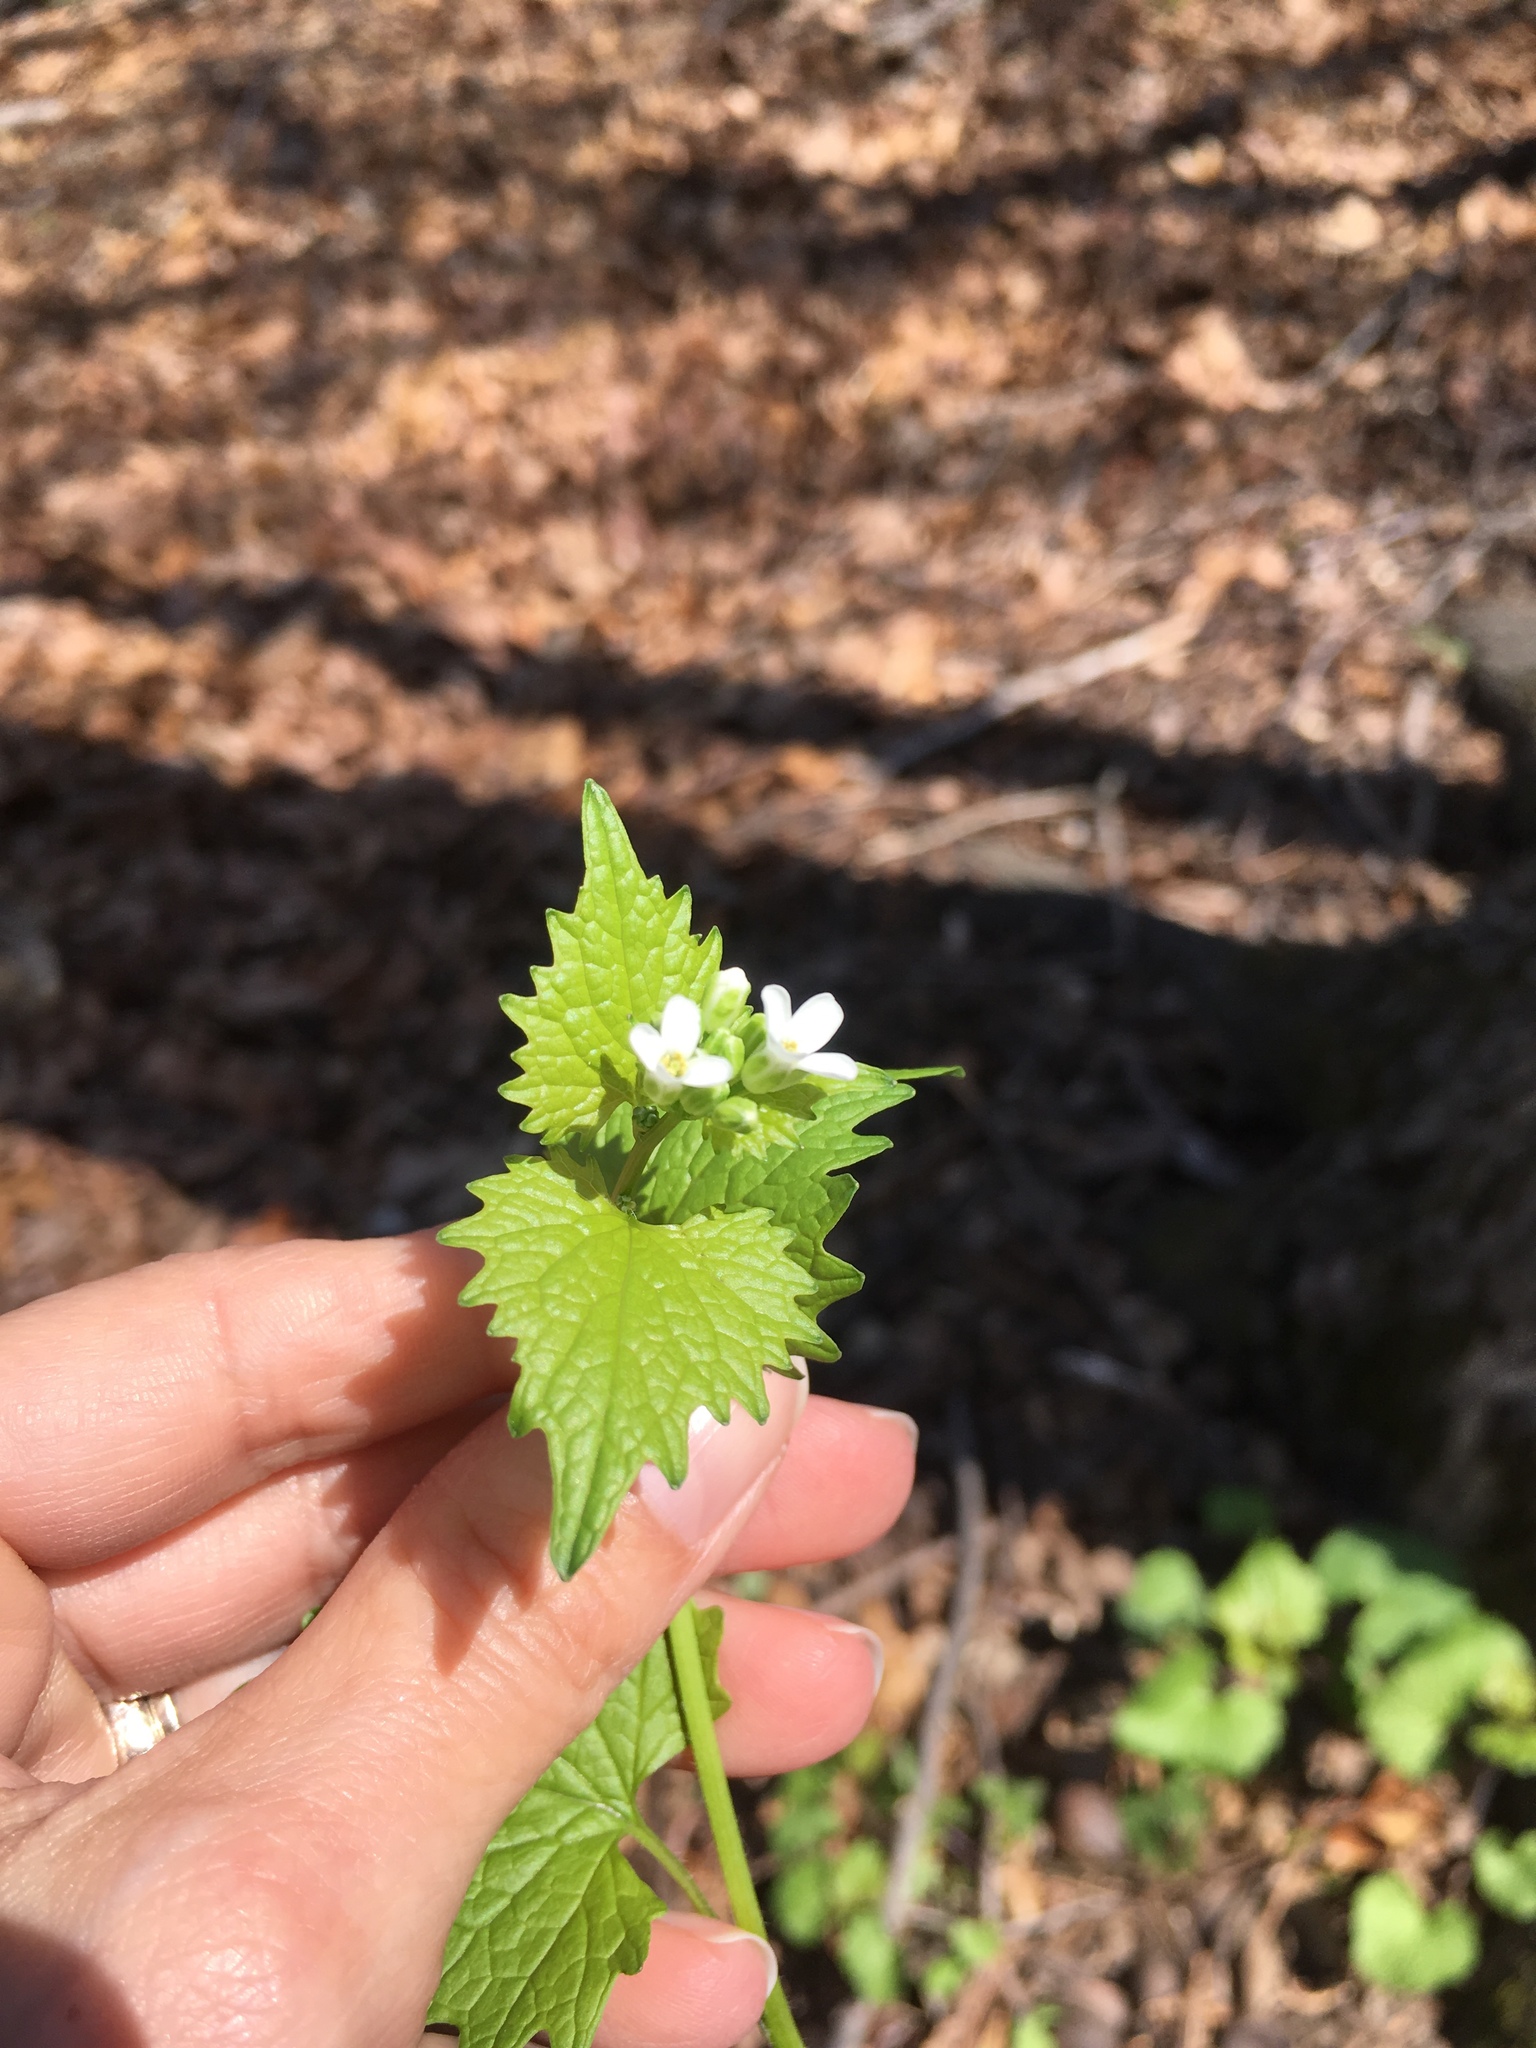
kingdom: Plantae
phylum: Tracheophyta
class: Magnoliopsida
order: Brassicales
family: Brassicaceae
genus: Alliaria
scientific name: Alliaria petiolata
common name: Garlic mustard
